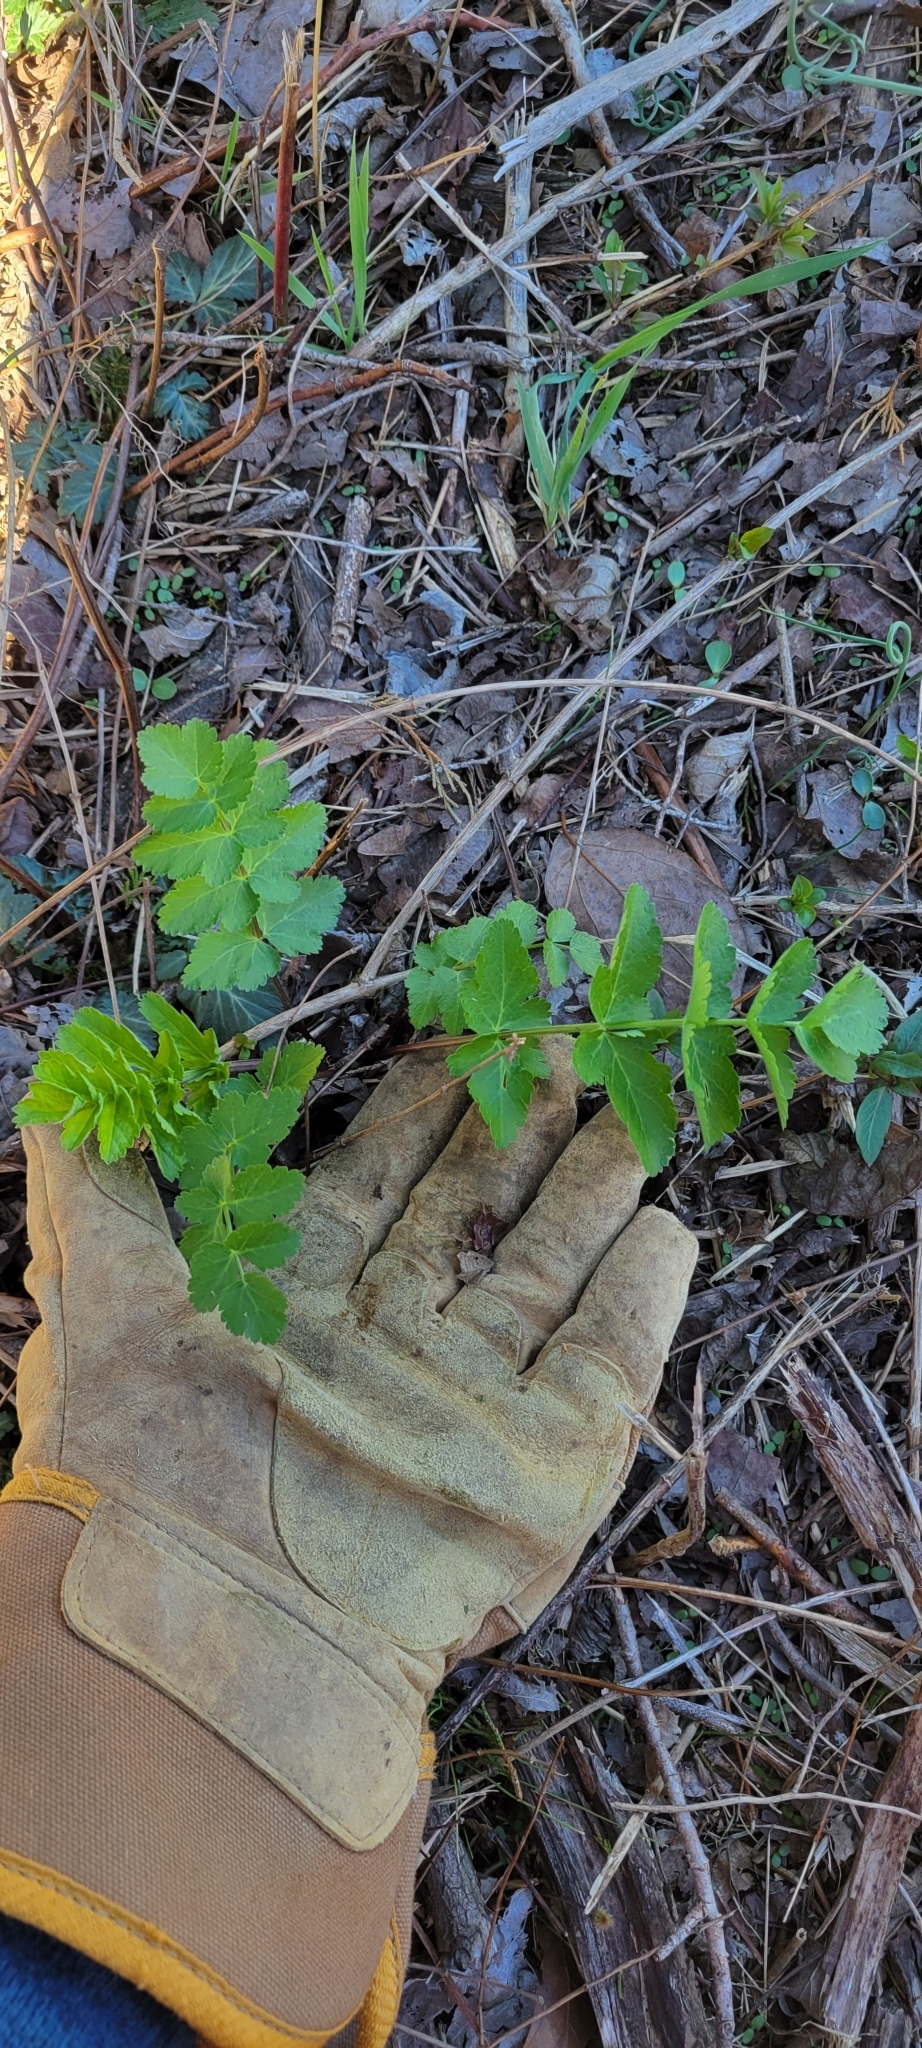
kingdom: Plantae
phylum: Tracheophyta
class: Magnoliopsida
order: Apiales
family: Apiaceae
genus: Pastinaca
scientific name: Pastinaca sativa
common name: Wild parsnip
